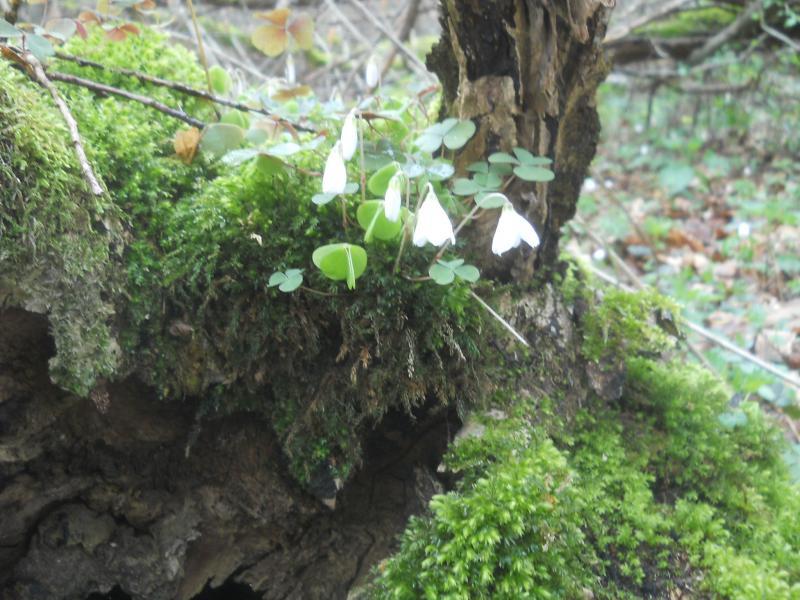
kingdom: Plantae
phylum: Tracheophyta
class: Magnoliopsida
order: Oxalidales
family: Oxalidaceae
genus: Oxalis
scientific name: Oxalis acetosella
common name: Wood-sorrel
